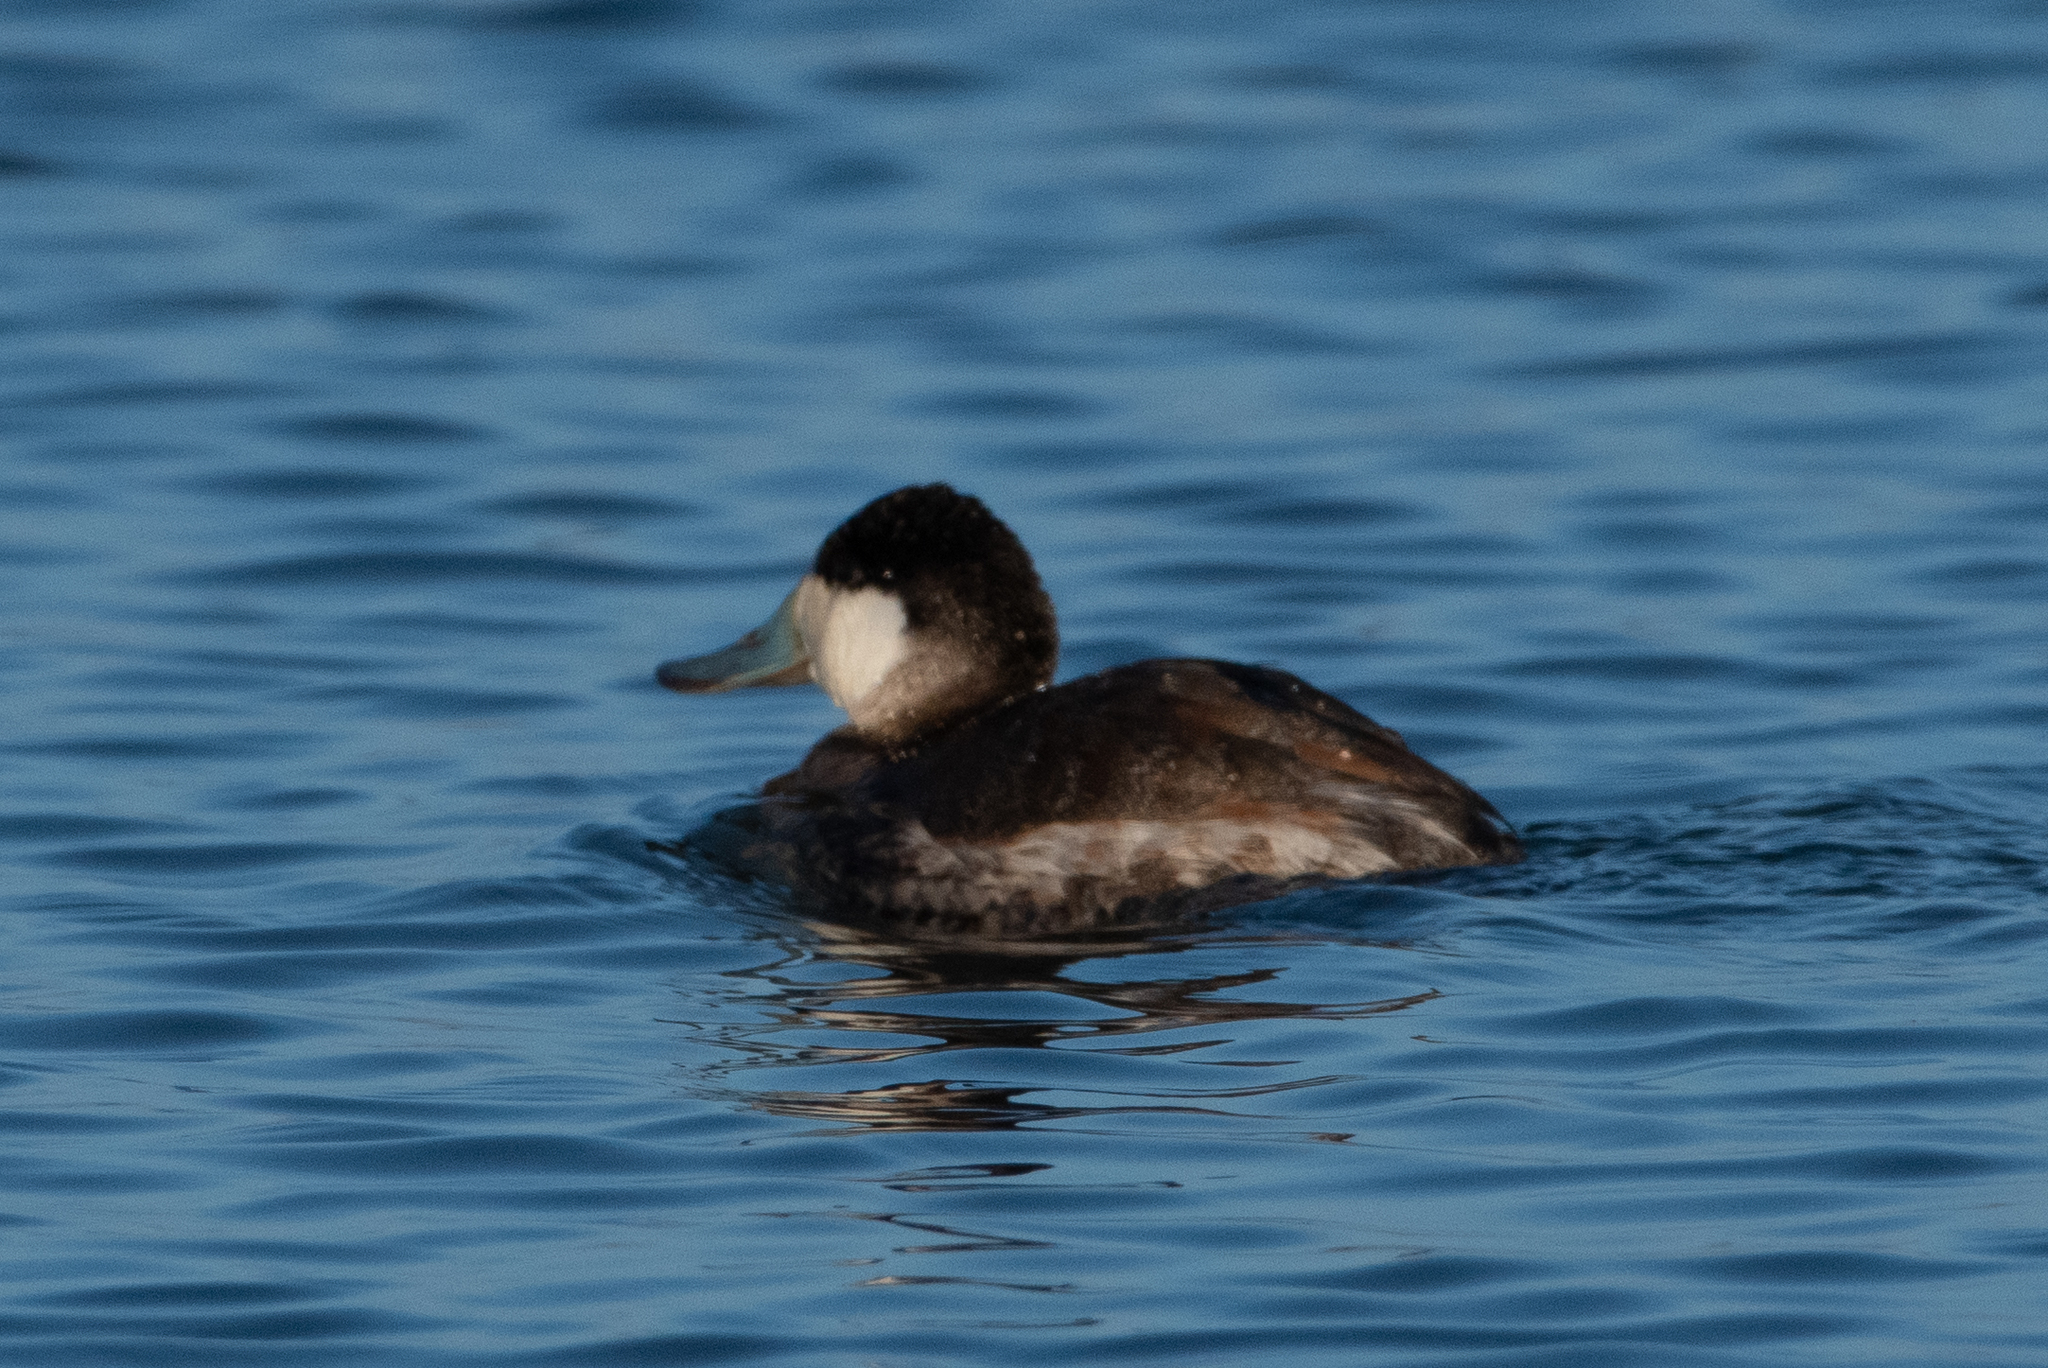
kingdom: Animalia
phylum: Chordata
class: Aves
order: Anseriformes
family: Anatidae
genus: Oxyura
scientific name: Oxyura jamaicensis
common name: Ruddy duck
